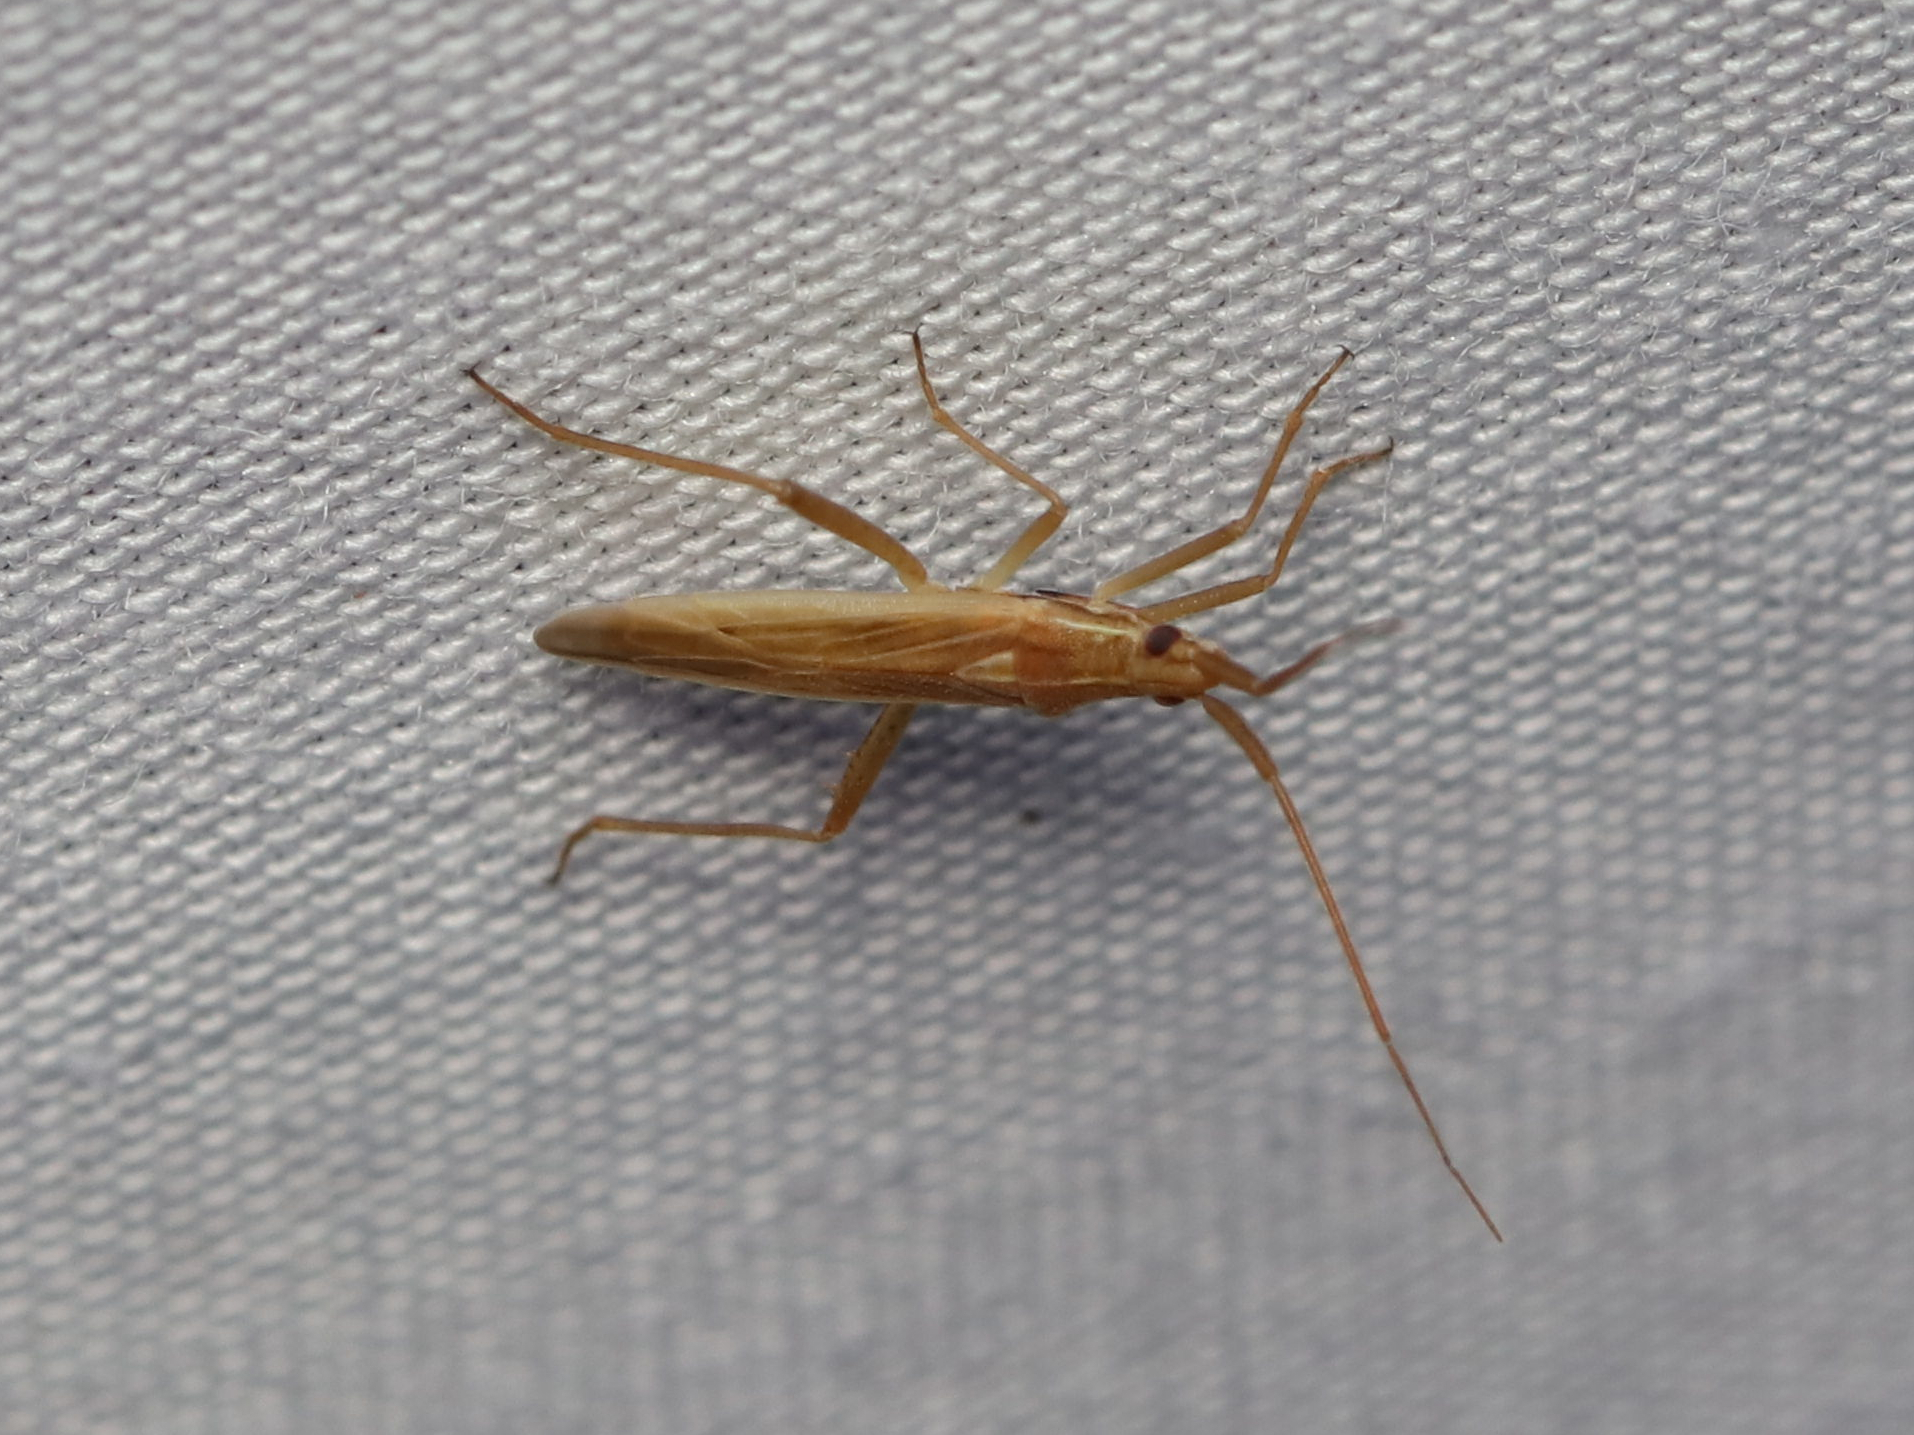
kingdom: Animalia
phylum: Arthropoda
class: Insecta
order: Hemiptera
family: Miridae
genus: Stenodema
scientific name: Stenodema trispinosa
